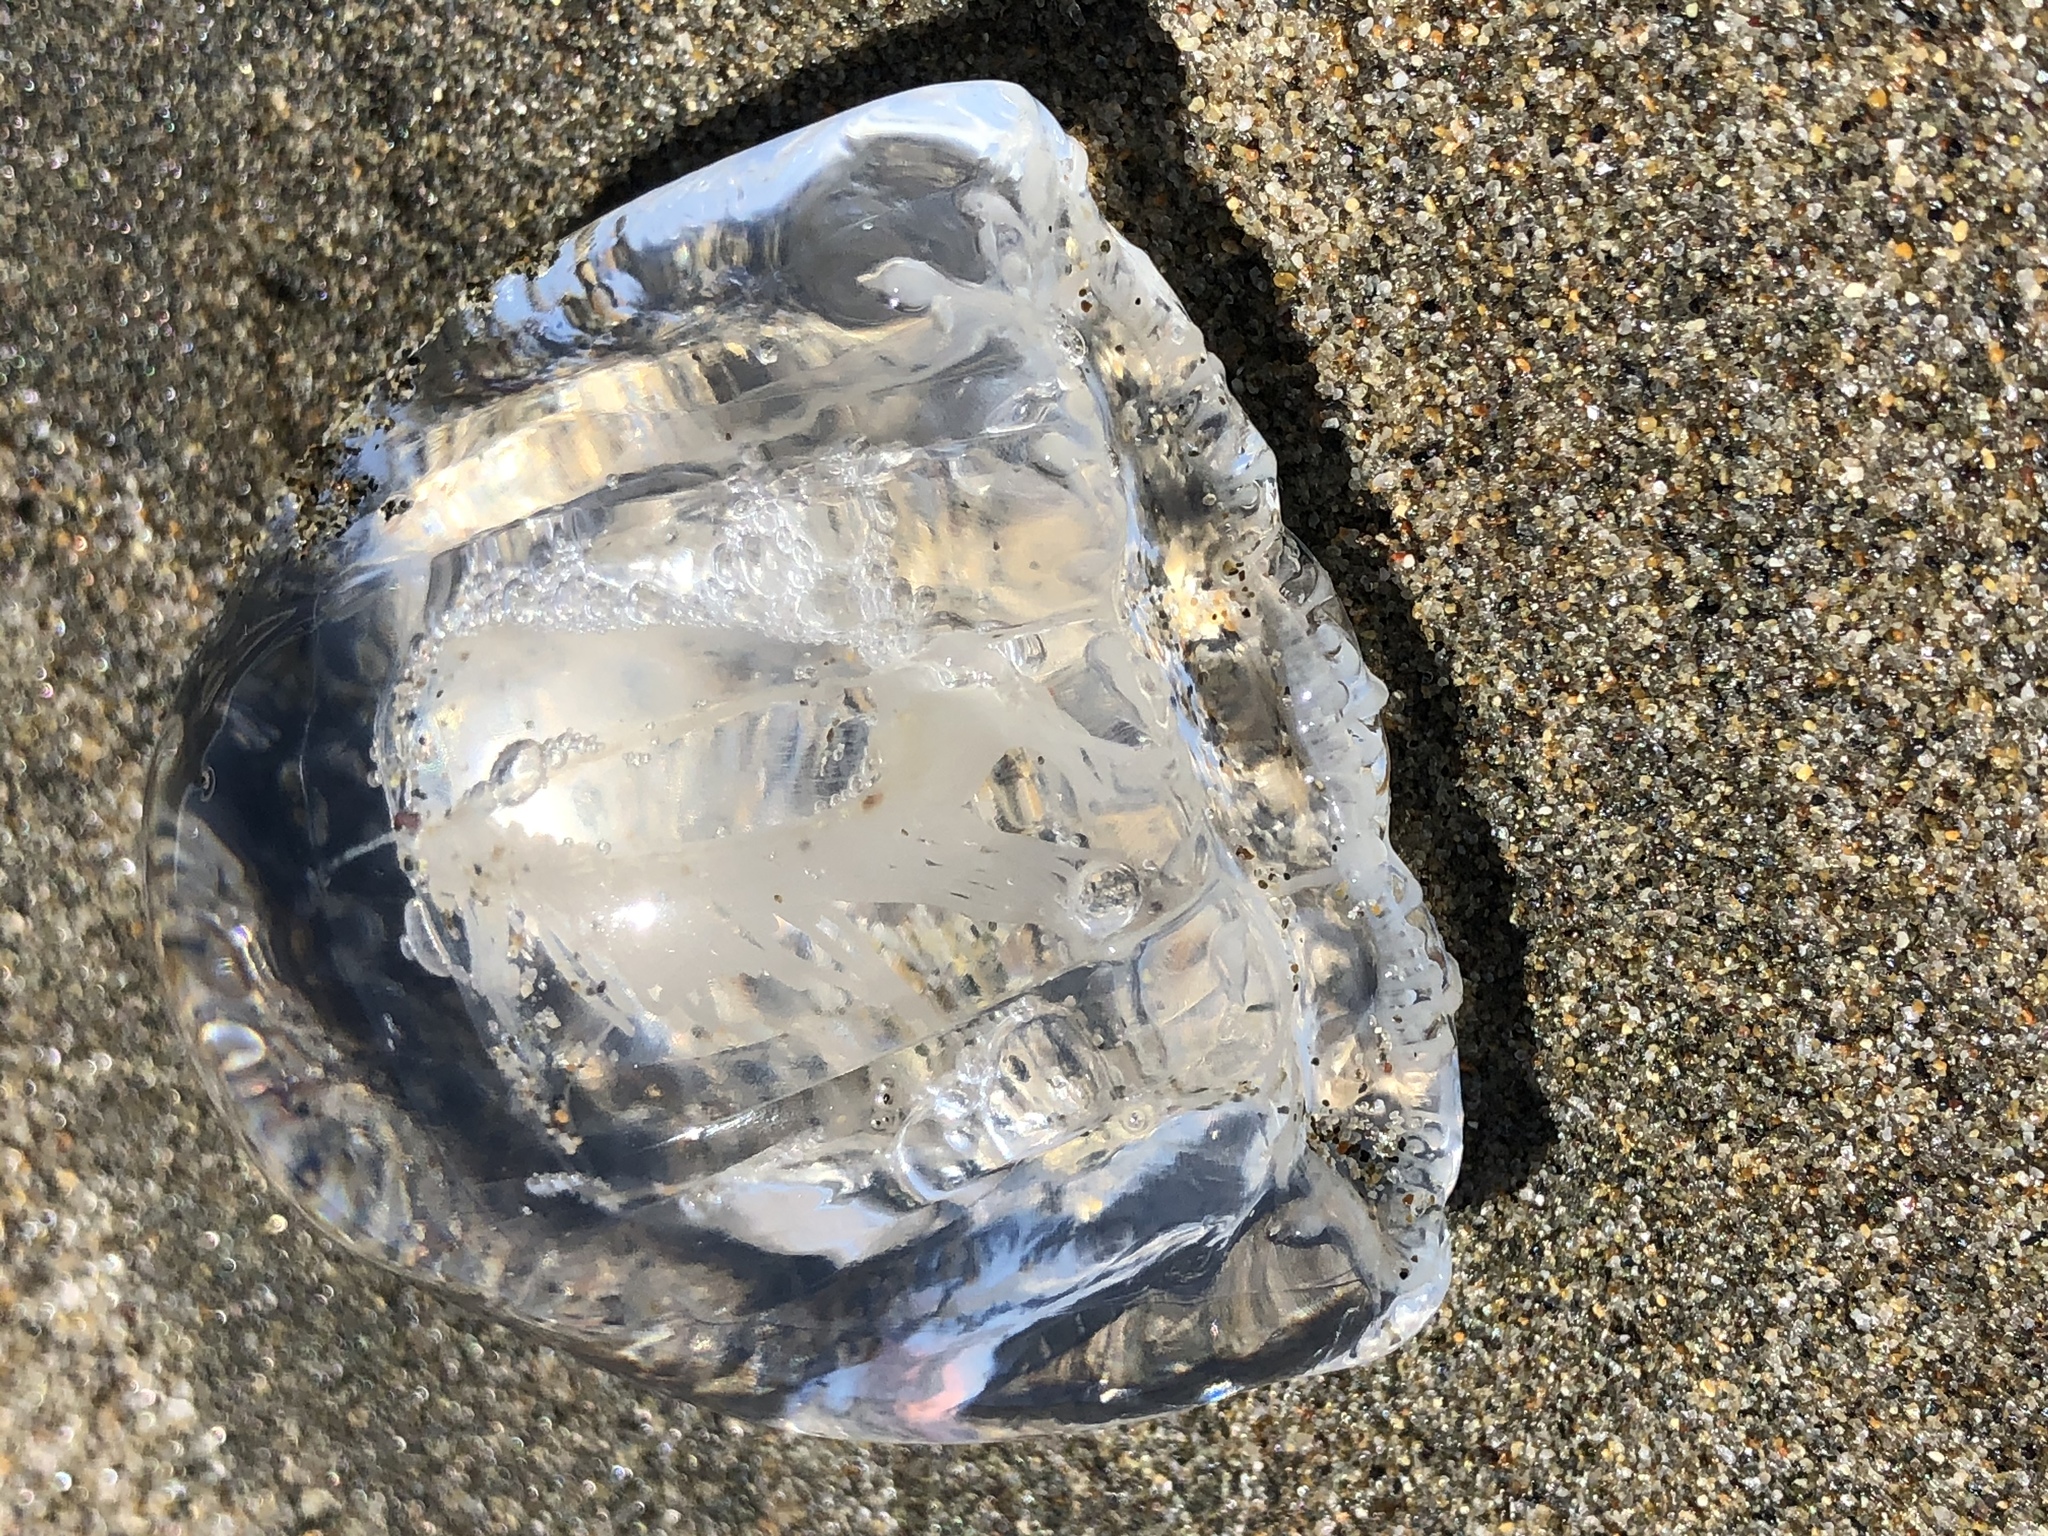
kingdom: Animalia
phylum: Cnidaria
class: Hydrozoa
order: Anthoathecata
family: Corynidae
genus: Scrippsia
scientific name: Scrippsia pacifica
